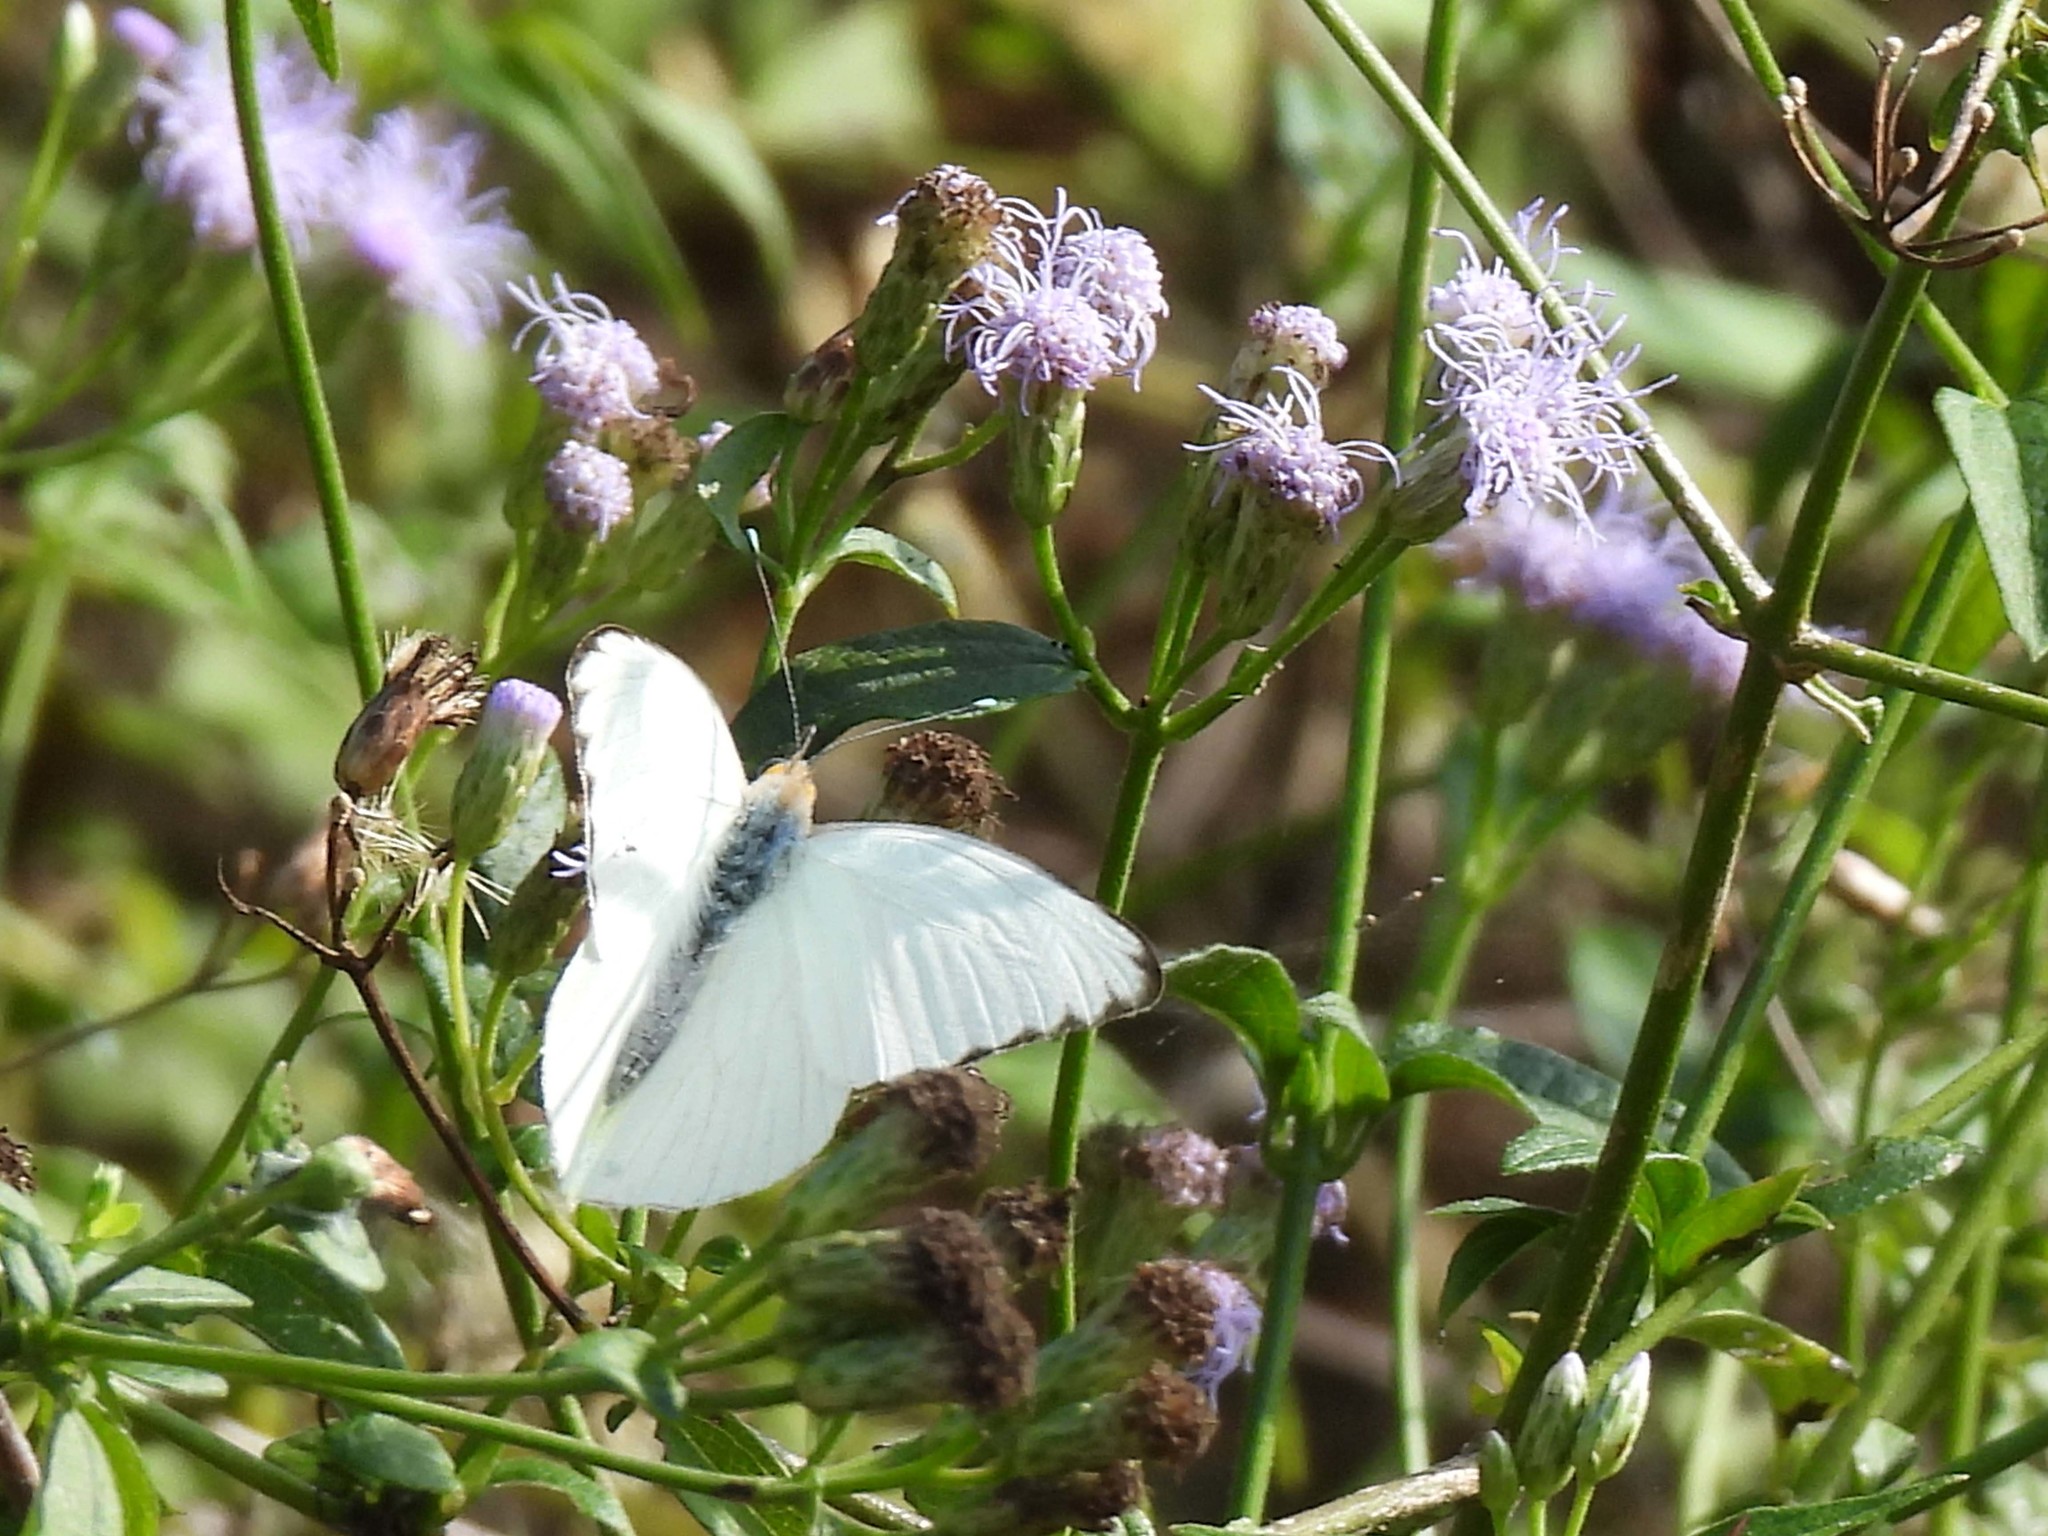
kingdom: Animalia
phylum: Arthropoda
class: Insecta
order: Lepidoptera
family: Pieridae
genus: Ascia
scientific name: Ascia monuste
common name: Great southern white
